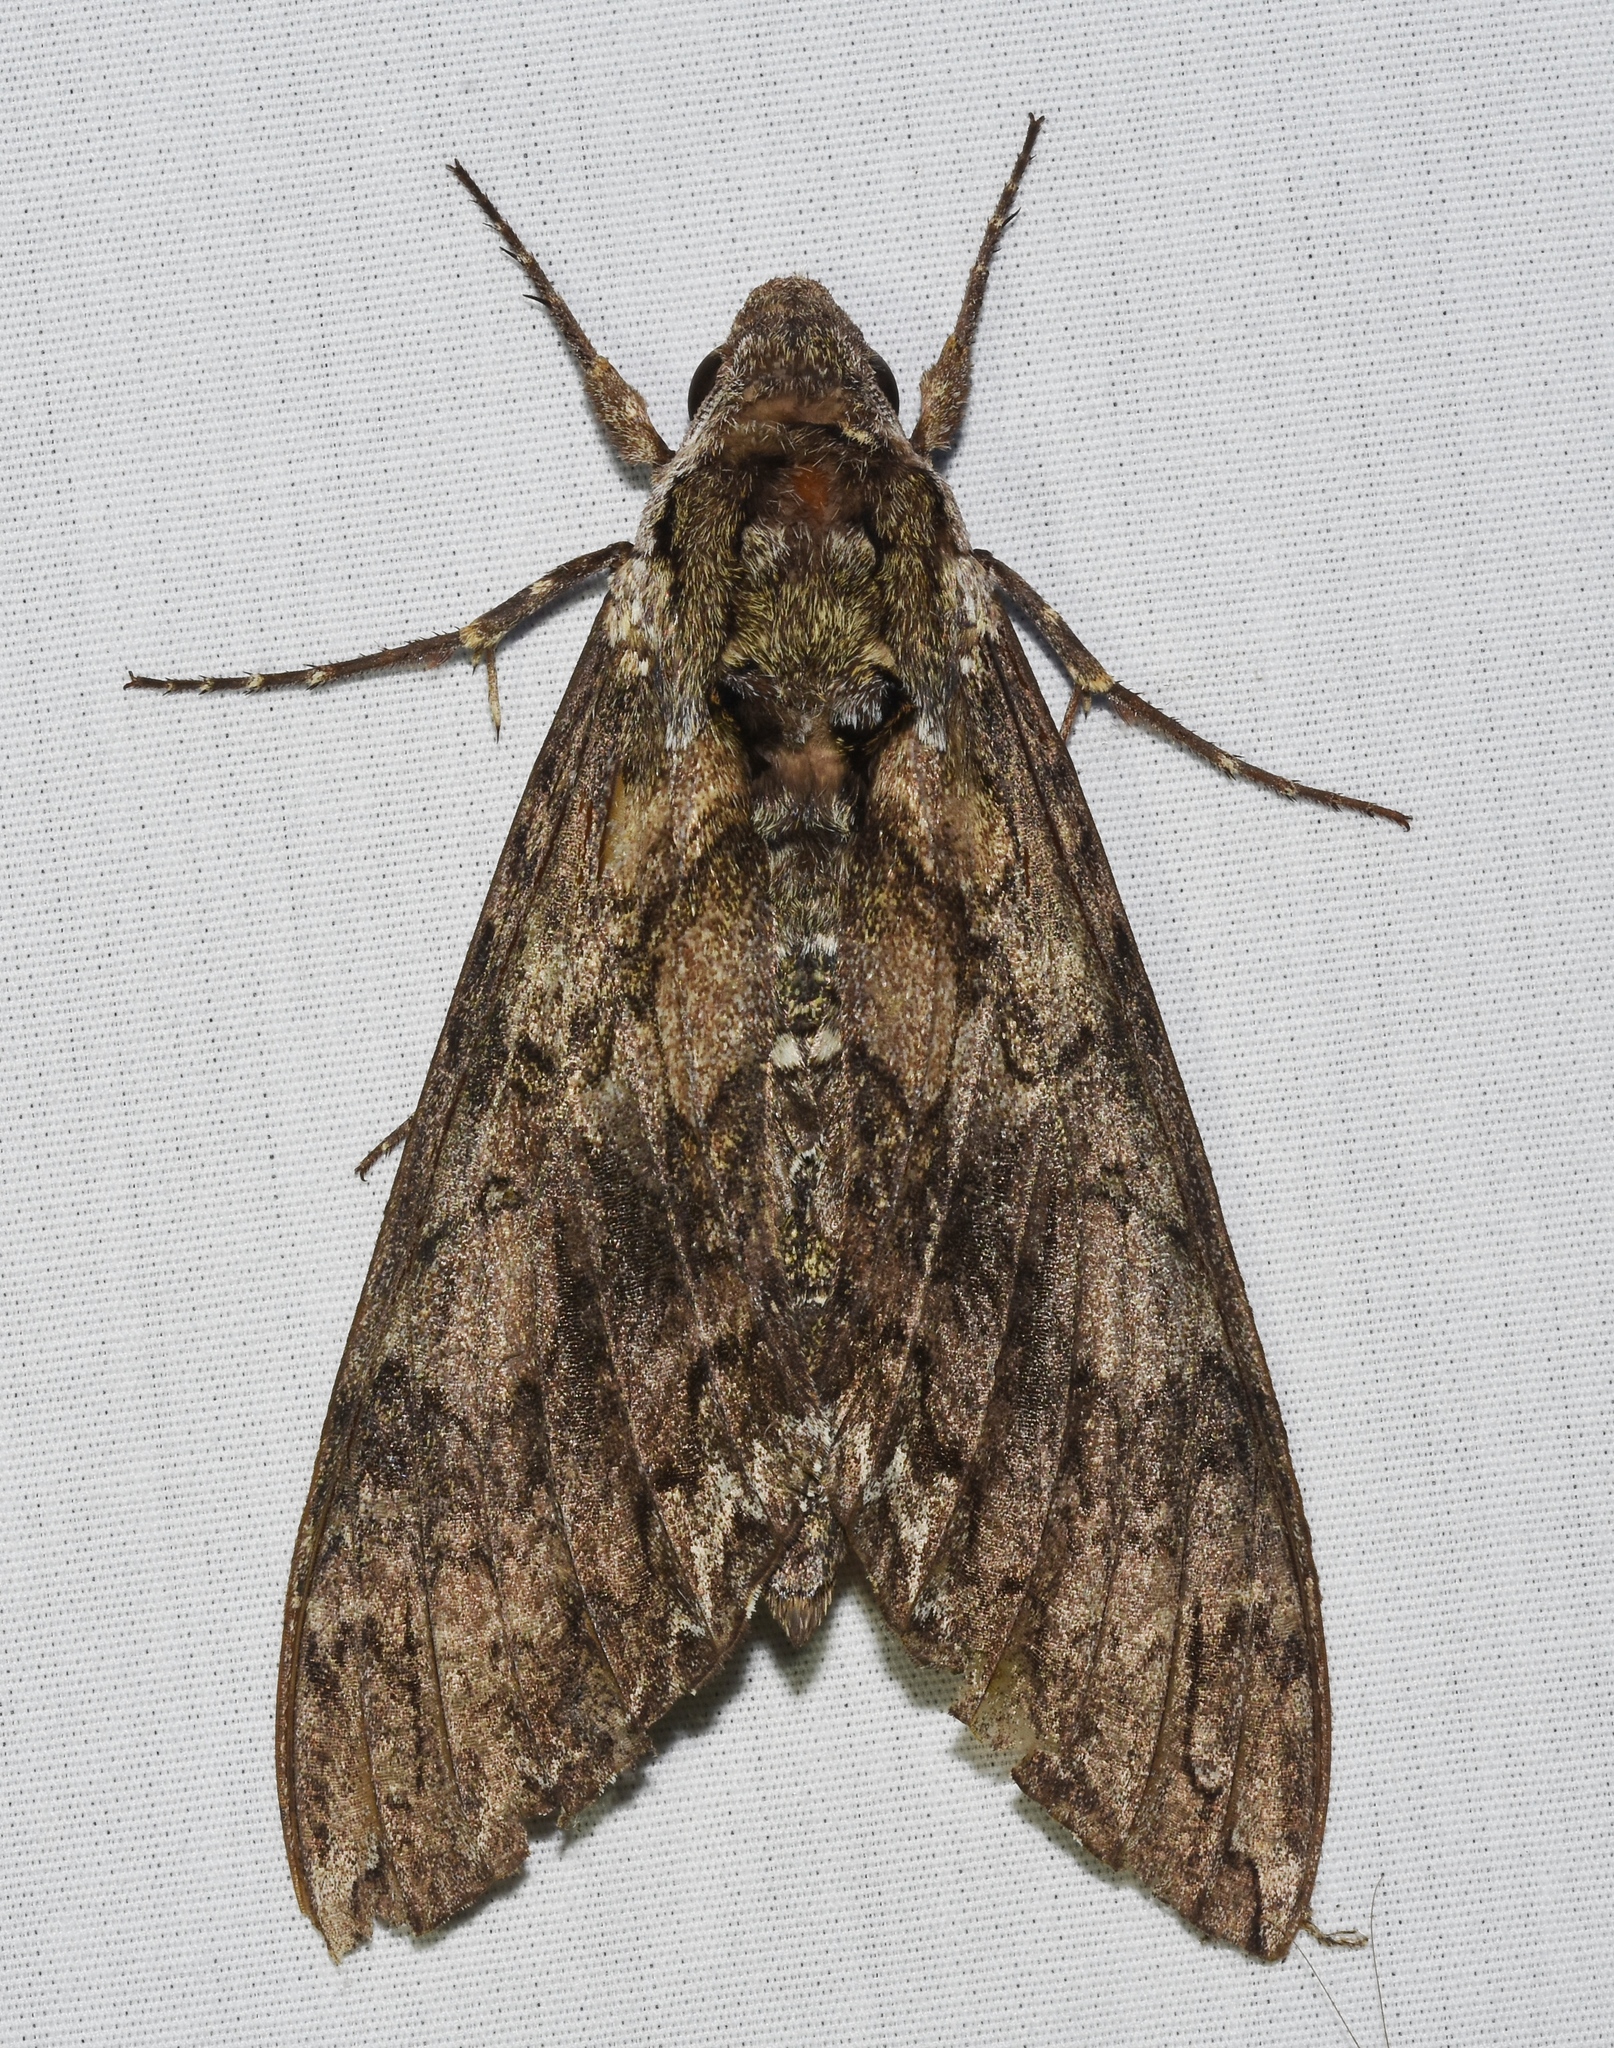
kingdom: Animalia
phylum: Arthropoda
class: Insecta
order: Lepidoptera
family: Sphingidae
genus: Manduca
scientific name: Manduca sexta
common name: Carolina sphinx
